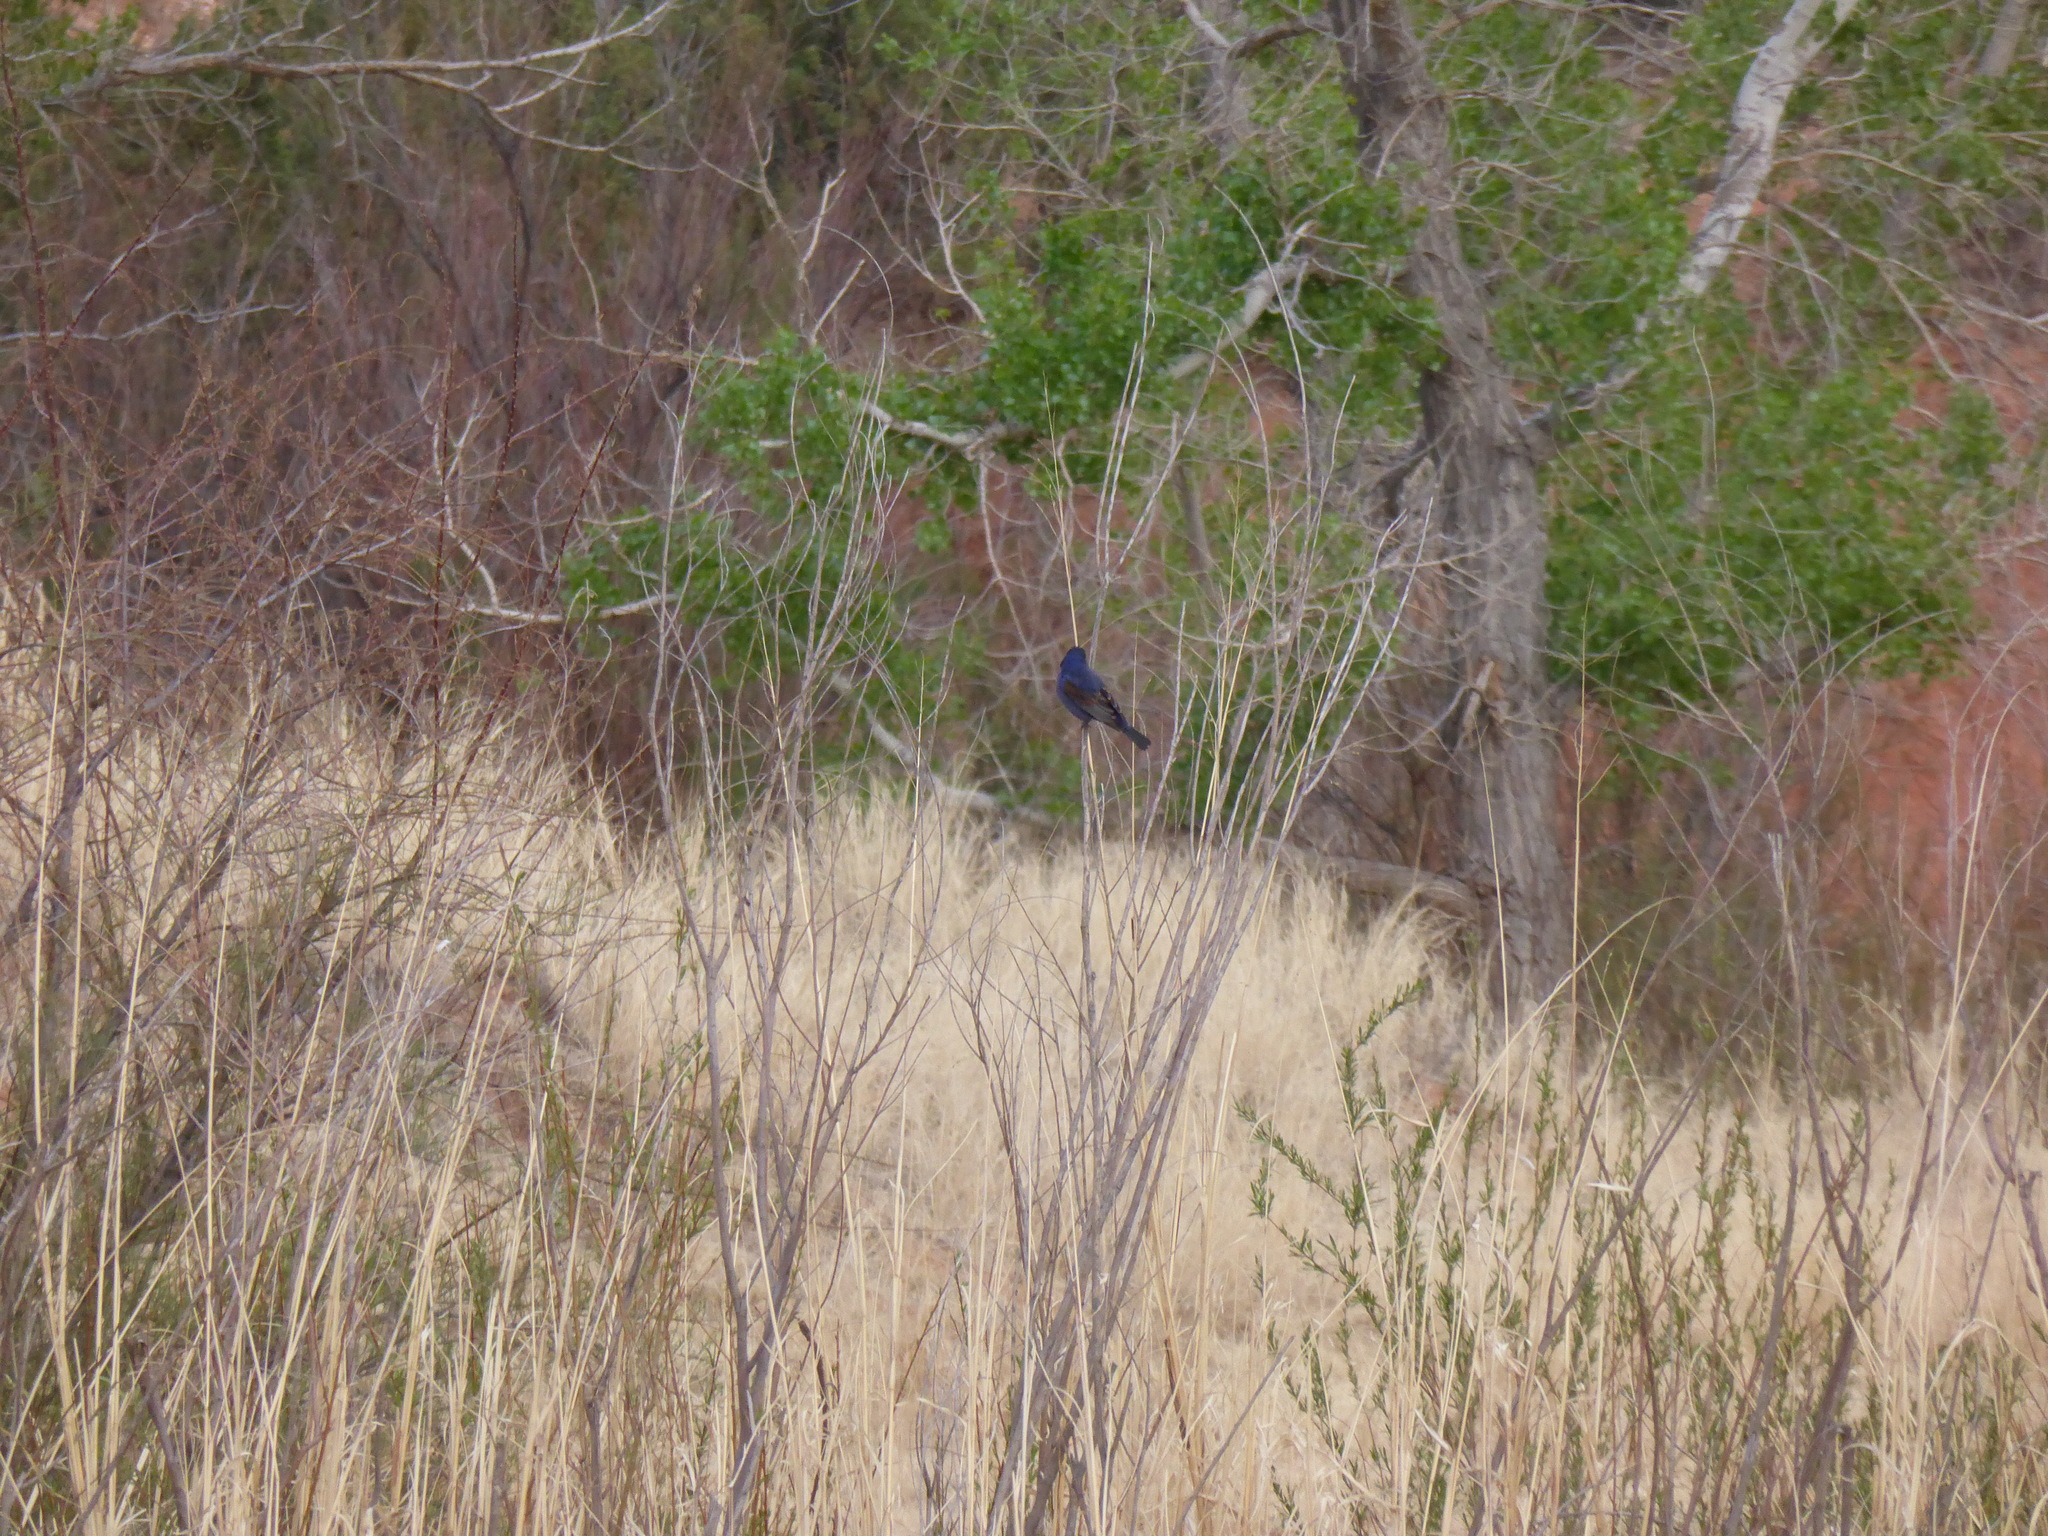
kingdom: Animalia
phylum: Chordata
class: Aves
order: Passeriformes
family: Cardinalidae
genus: Passerina
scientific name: Passerina caerulea
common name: Blue grosbeak
